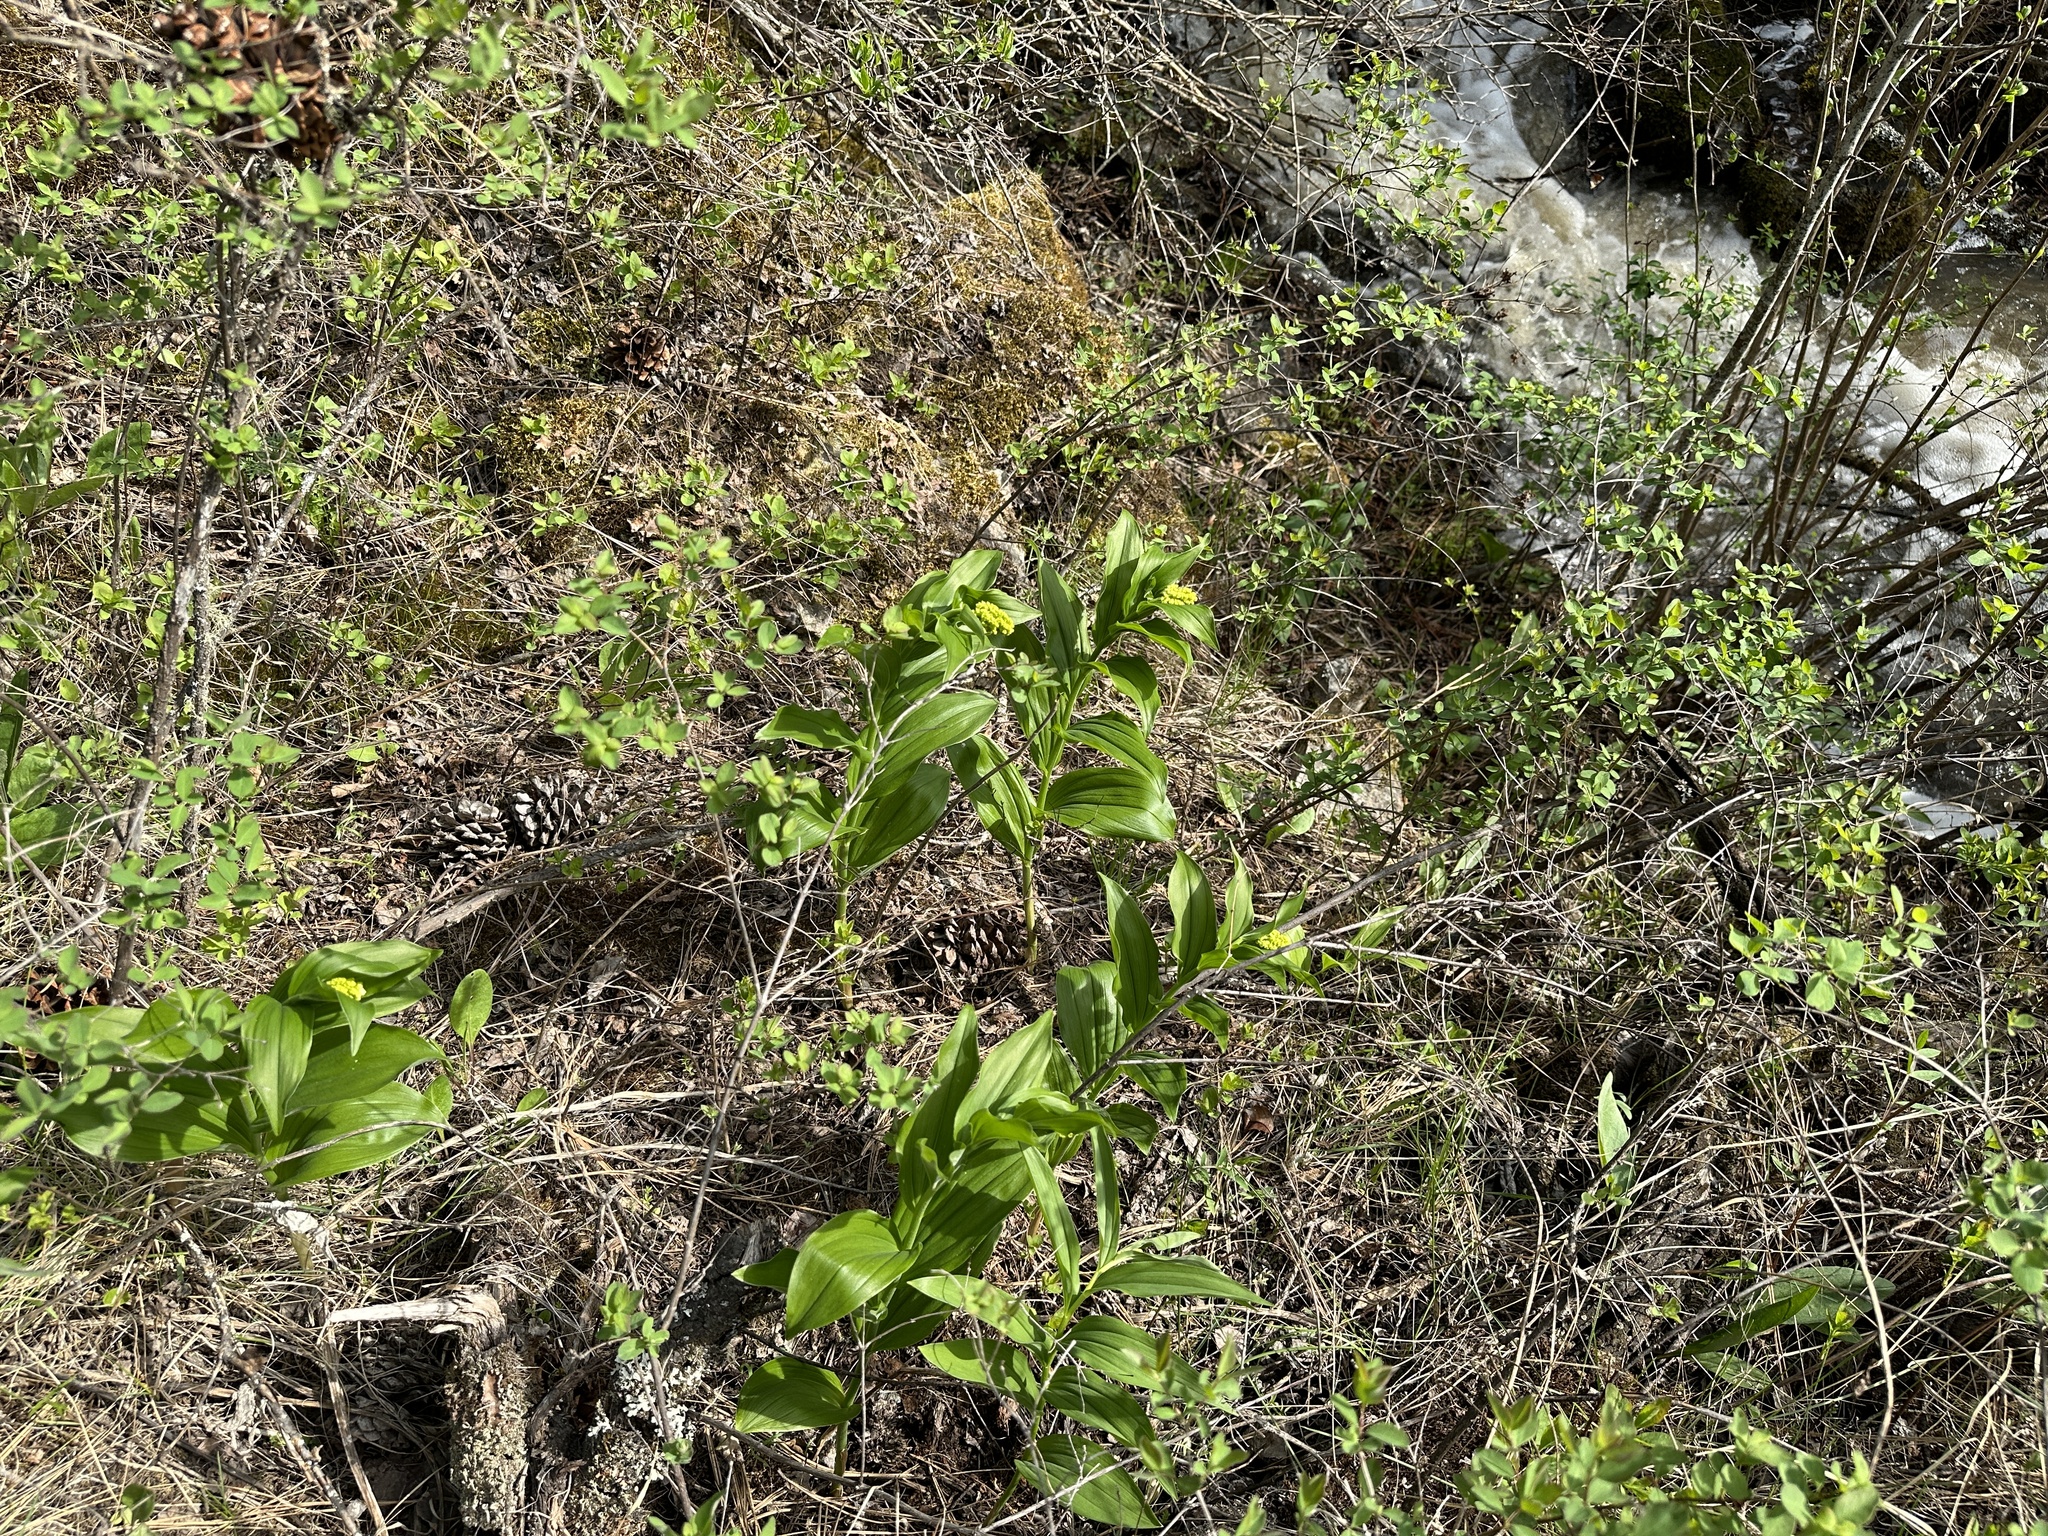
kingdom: Plantae
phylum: Tracheophyta
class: Liliopsida
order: Asparagales
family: Asparagaceae
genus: Maianthemum
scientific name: Maianthemum racemosum
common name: False spikenard
